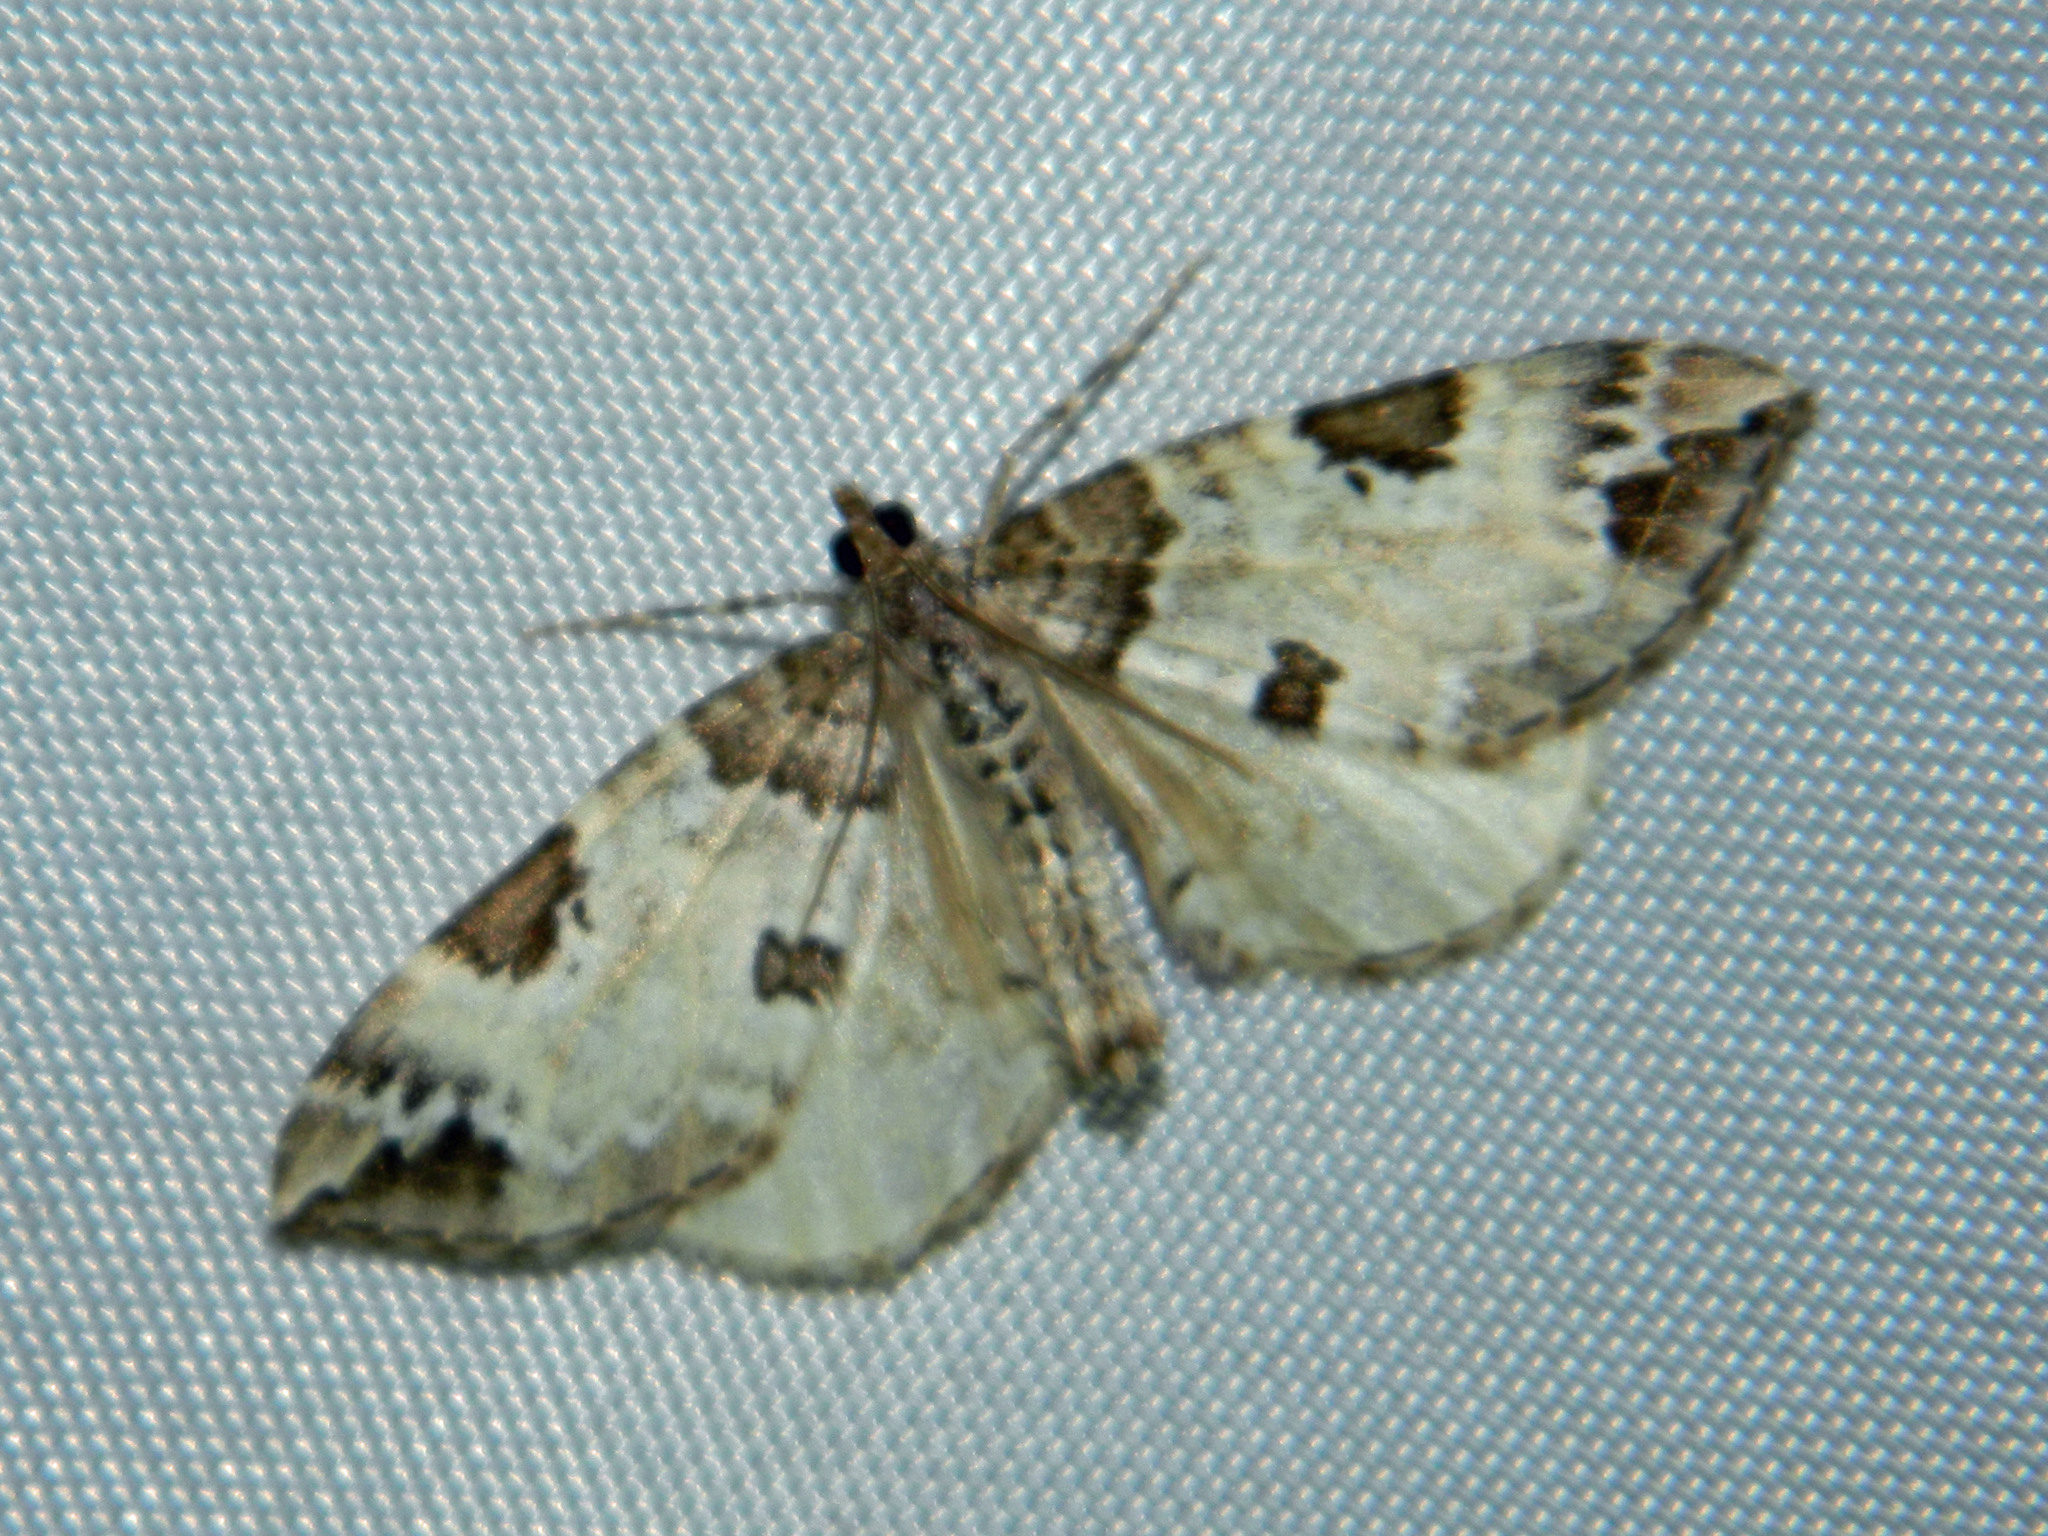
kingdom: Animalia
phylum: Arthropoda
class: Insecta
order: Lepidoptera
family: Geometridae
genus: Eulithis
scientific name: Eulithis explanata
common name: White eulithis
